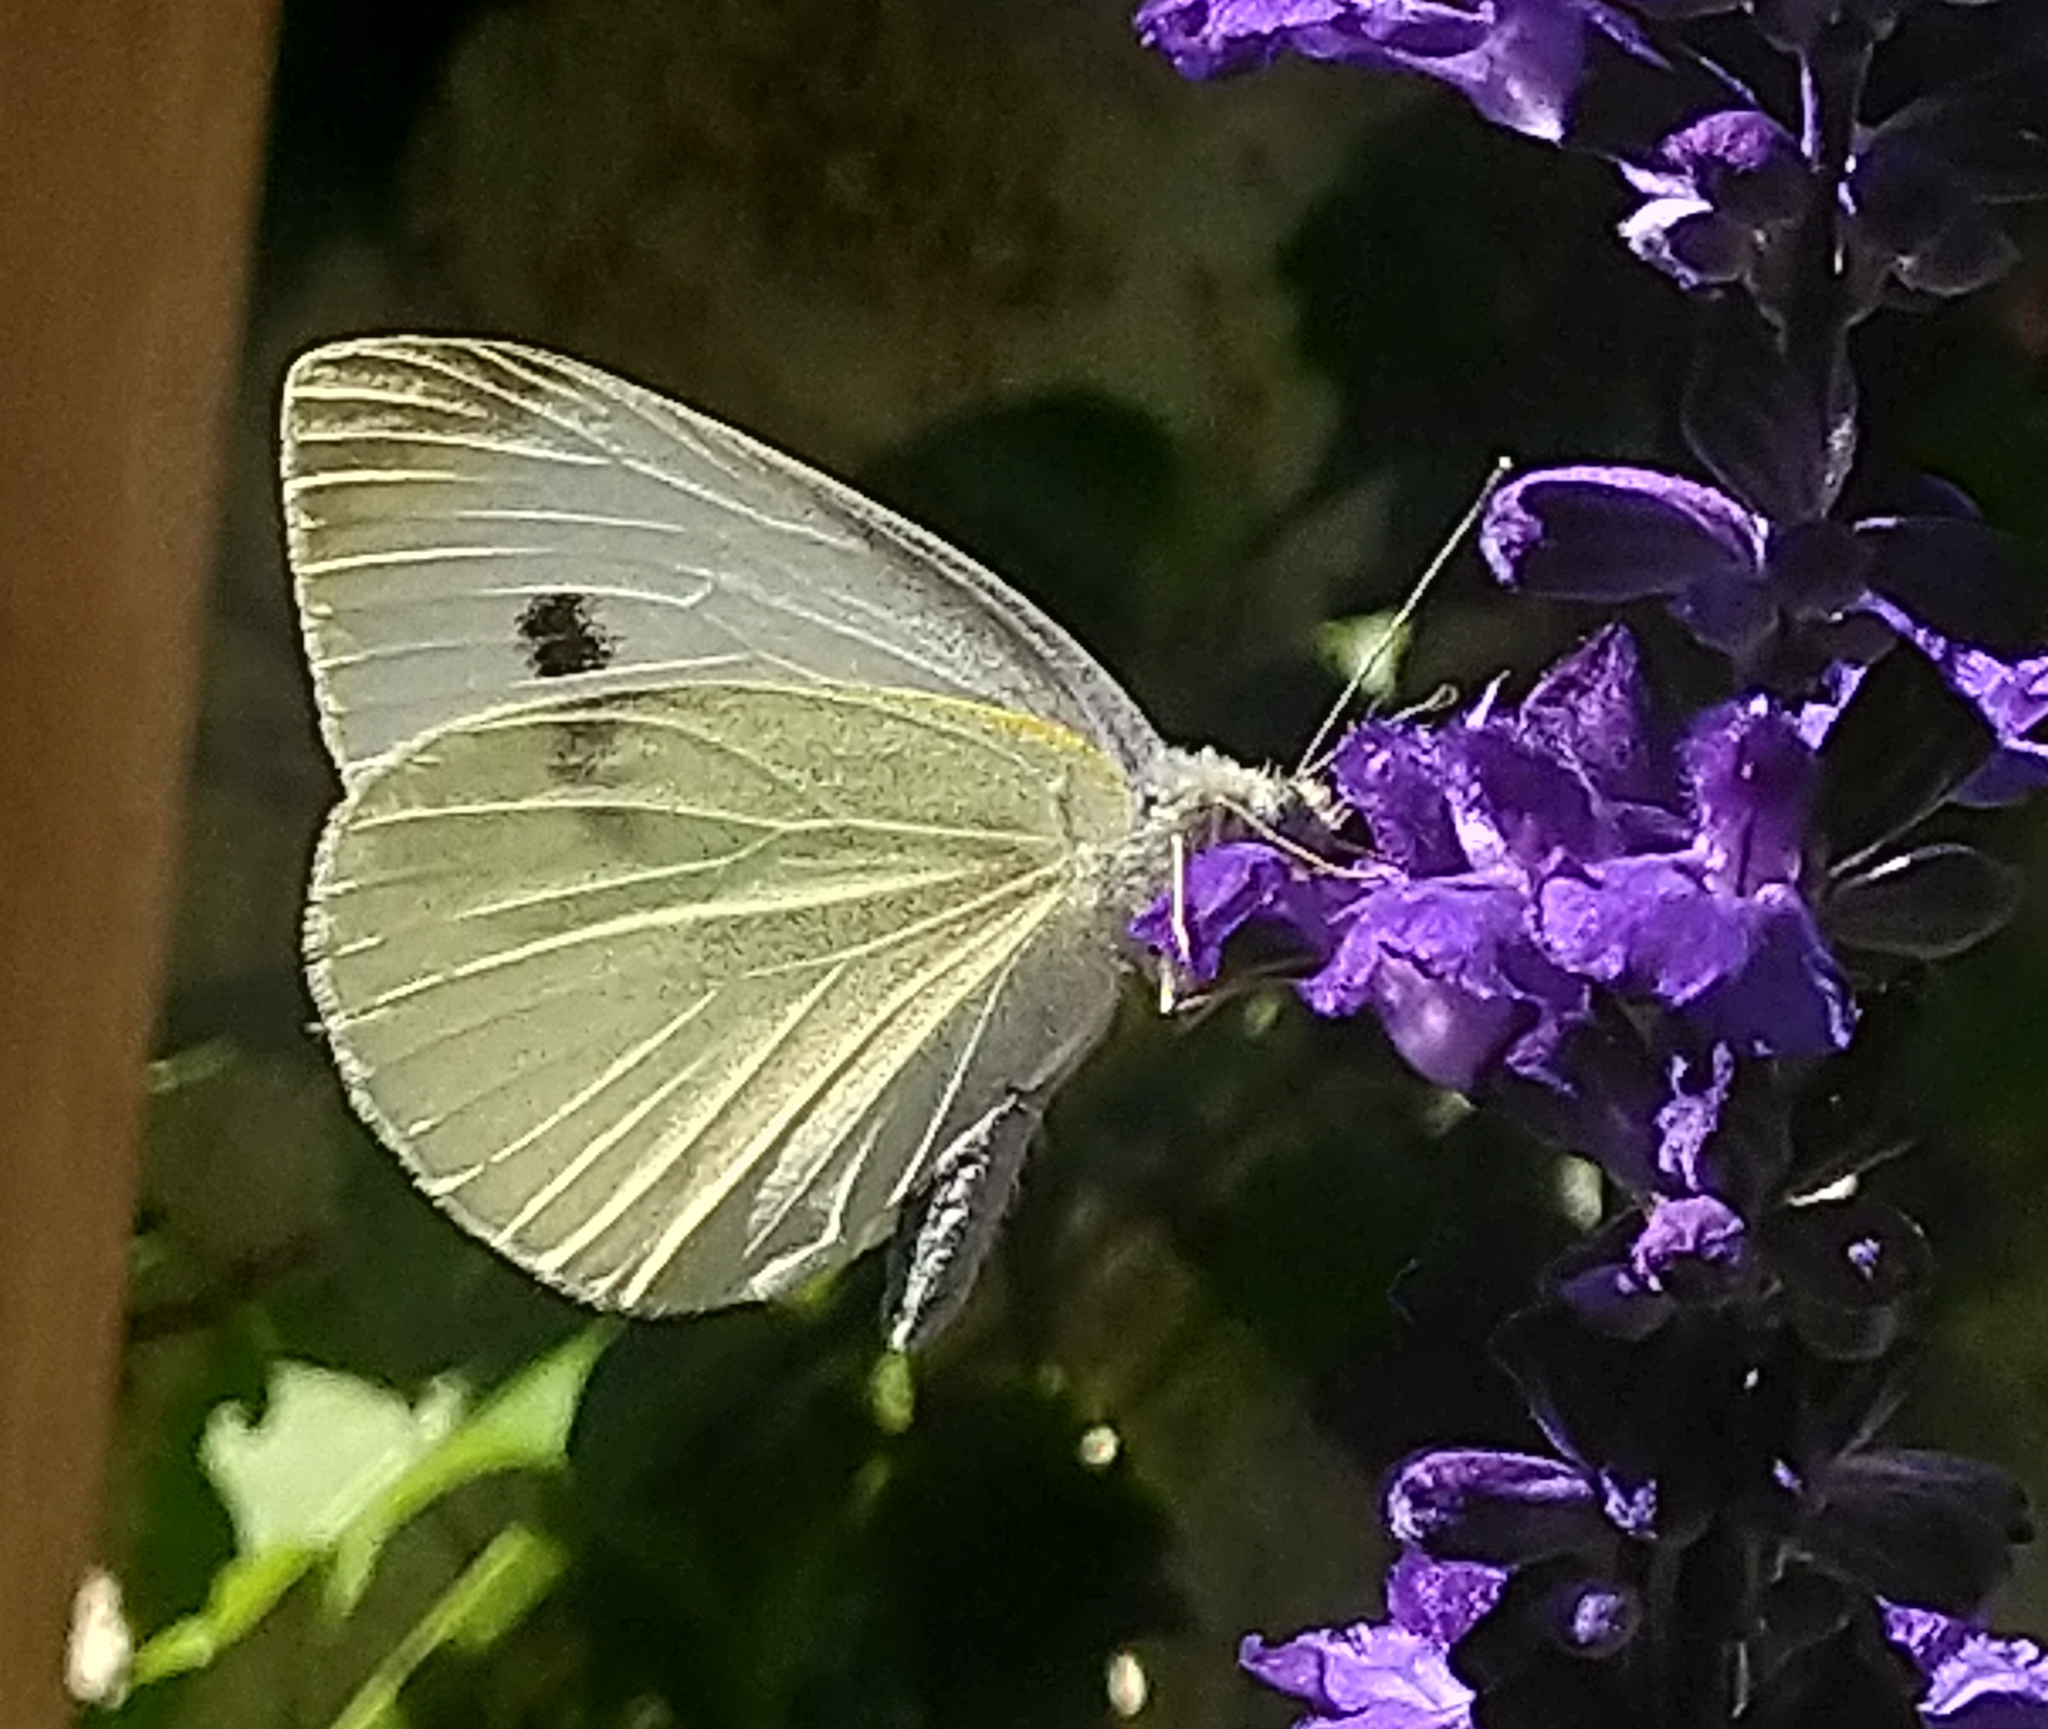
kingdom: Animalia
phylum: Arthropoda
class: Insecta
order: Lepidoptera
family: Pieridae
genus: Pieris
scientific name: Pieris rapae
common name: Small white
